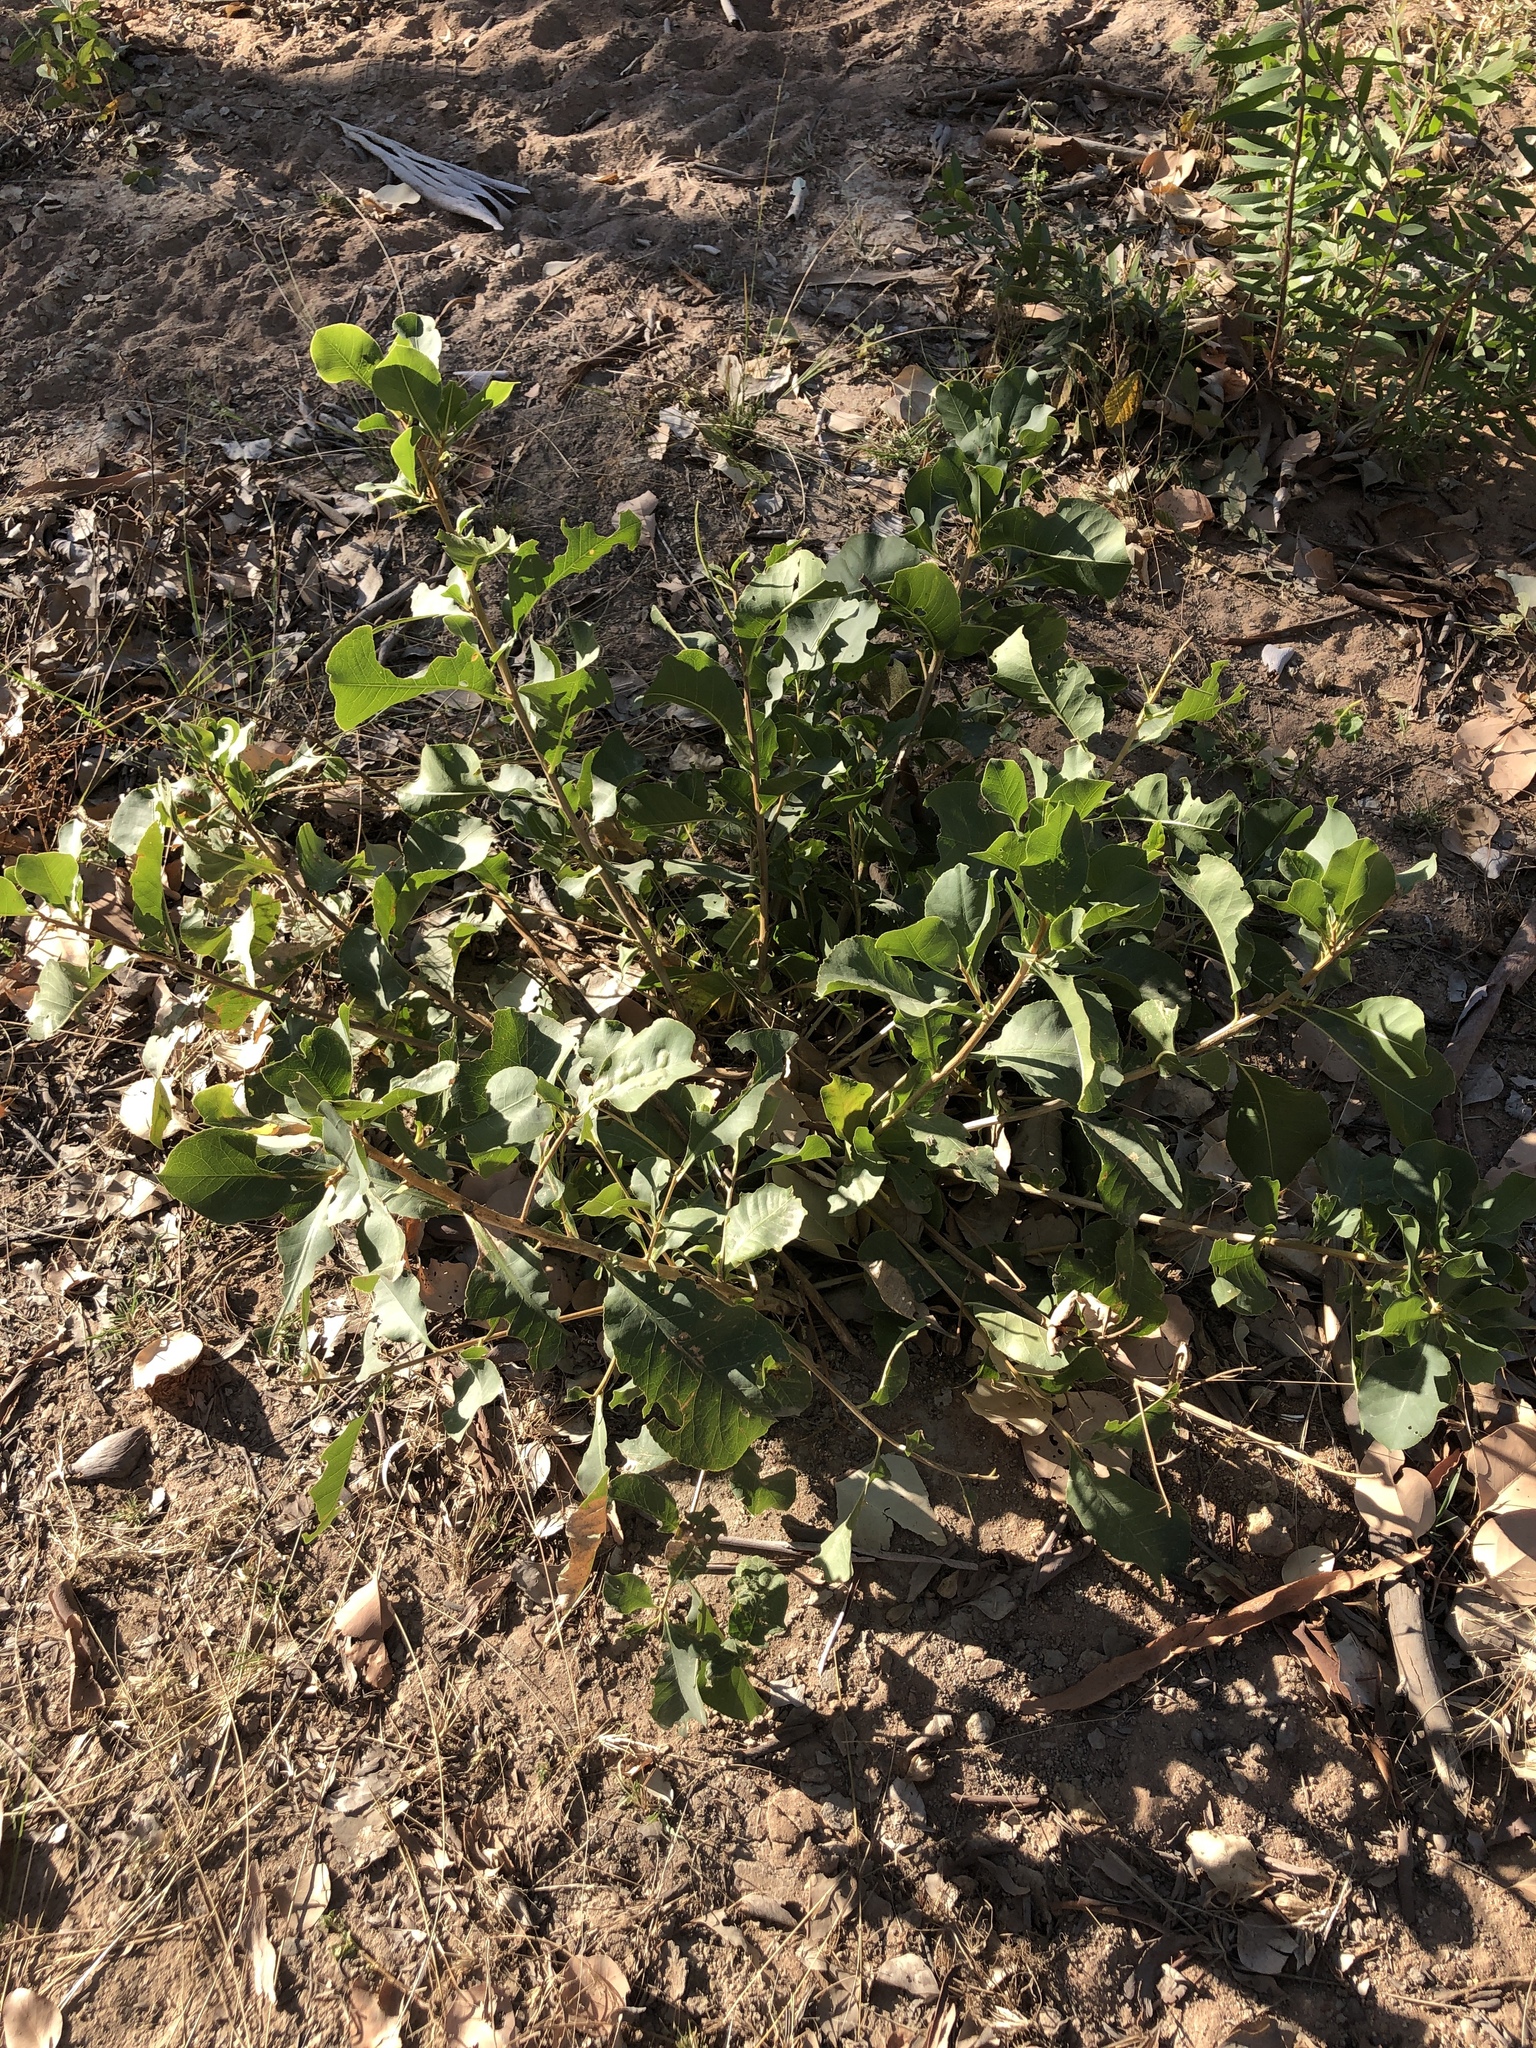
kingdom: Plantae
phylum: Tracheophyta
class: Magnoliopsida
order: Ericales
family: Lecythidaceae
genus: Planchonia
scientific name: Planchonia careya
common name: Cockatoo-apple
